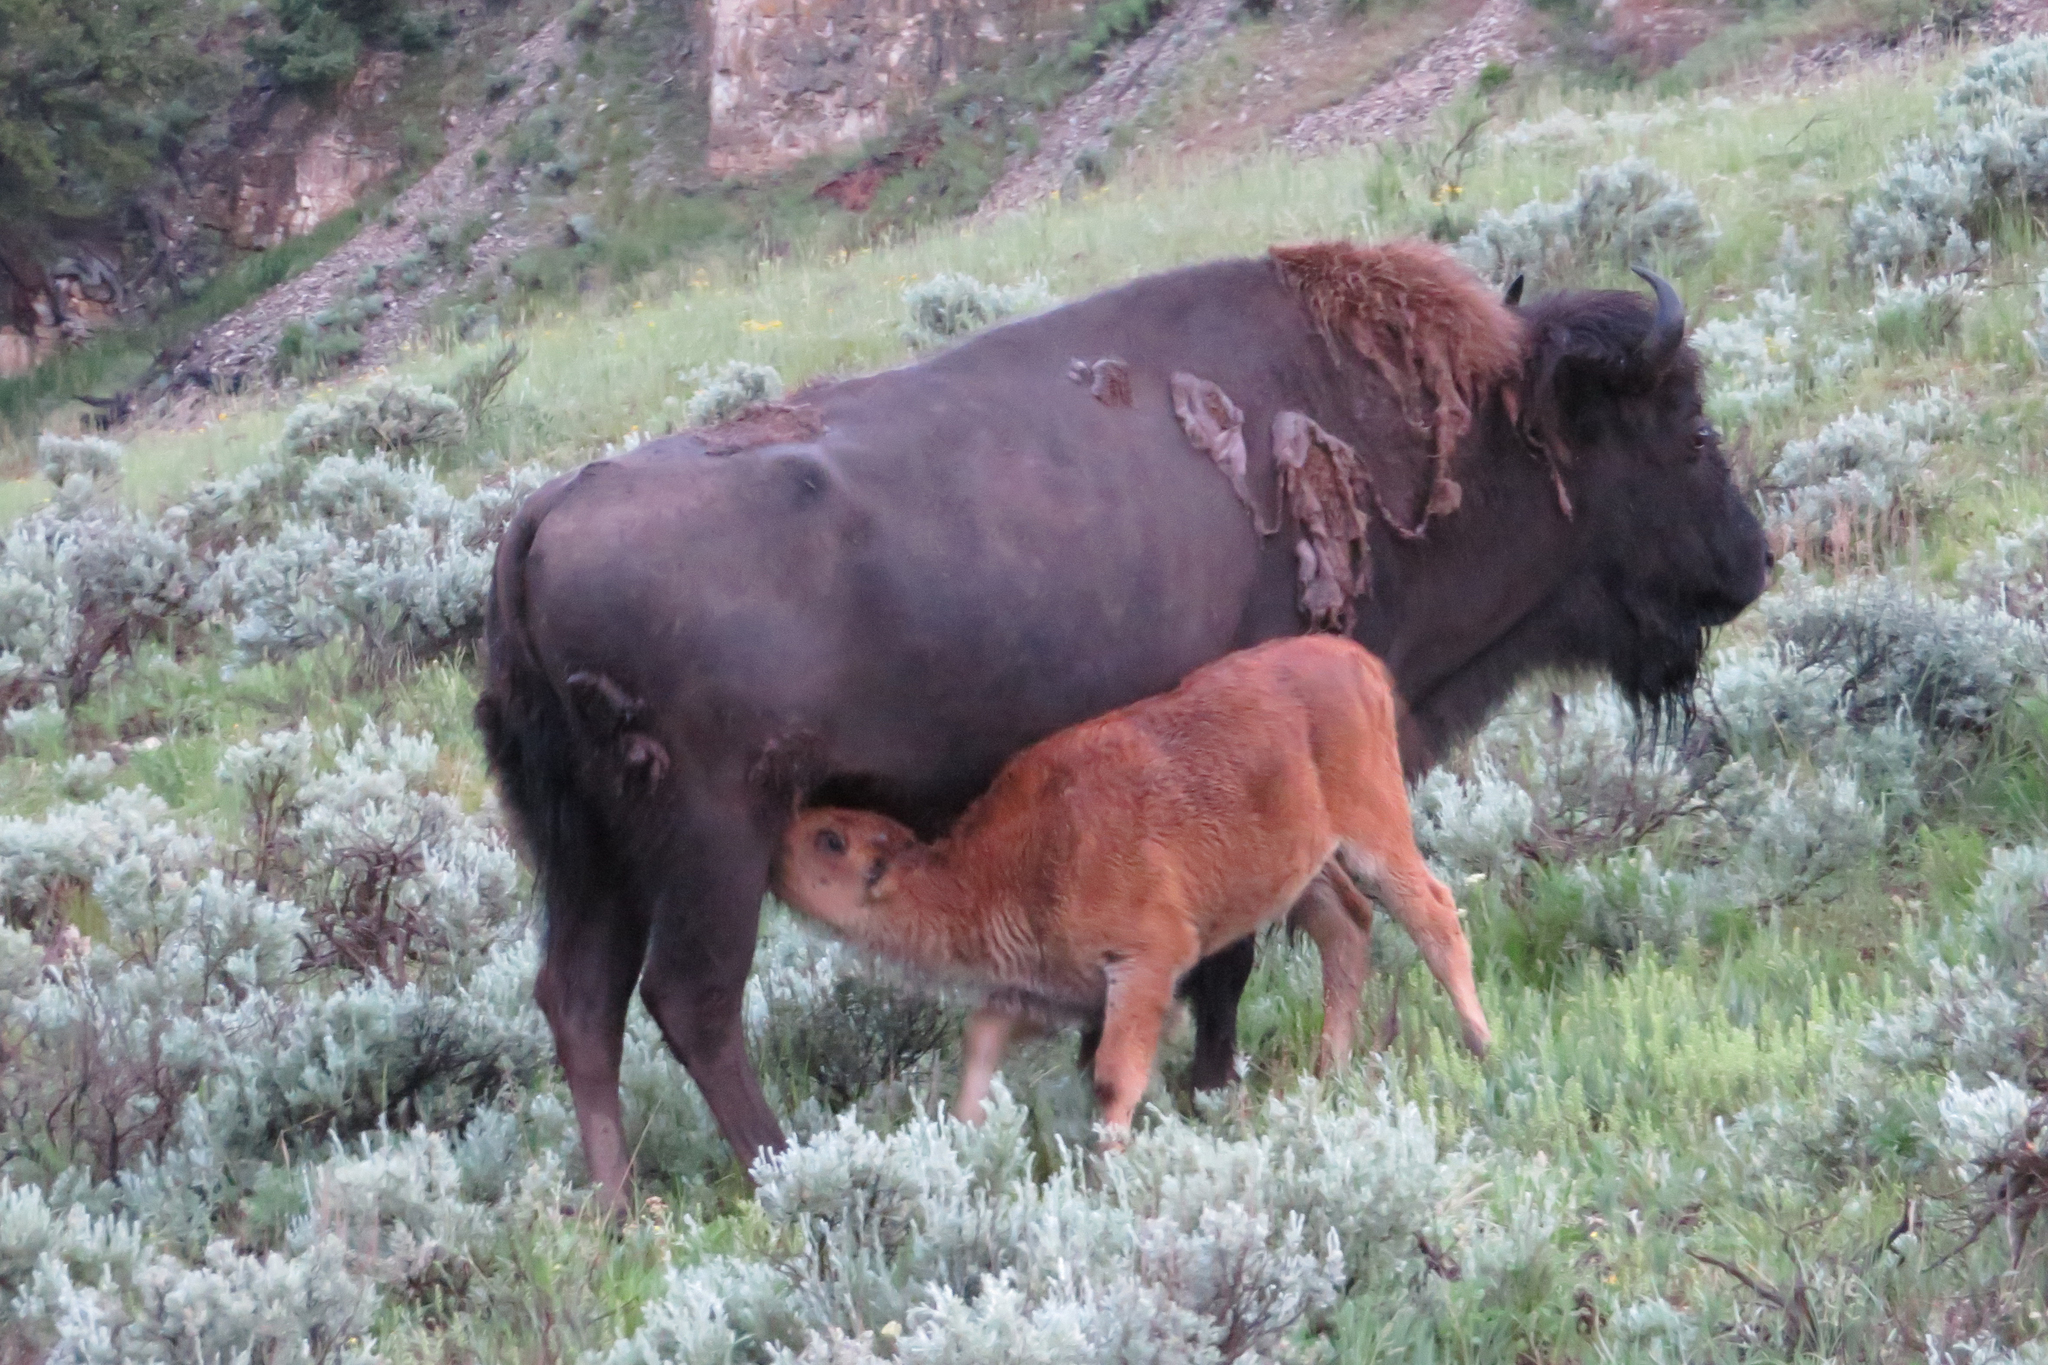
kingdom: Animalia
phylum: Chordata
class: Mammalia
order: Artiodactyla
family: Bovidae
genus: Bison
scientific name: Bison bison
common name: American bison
